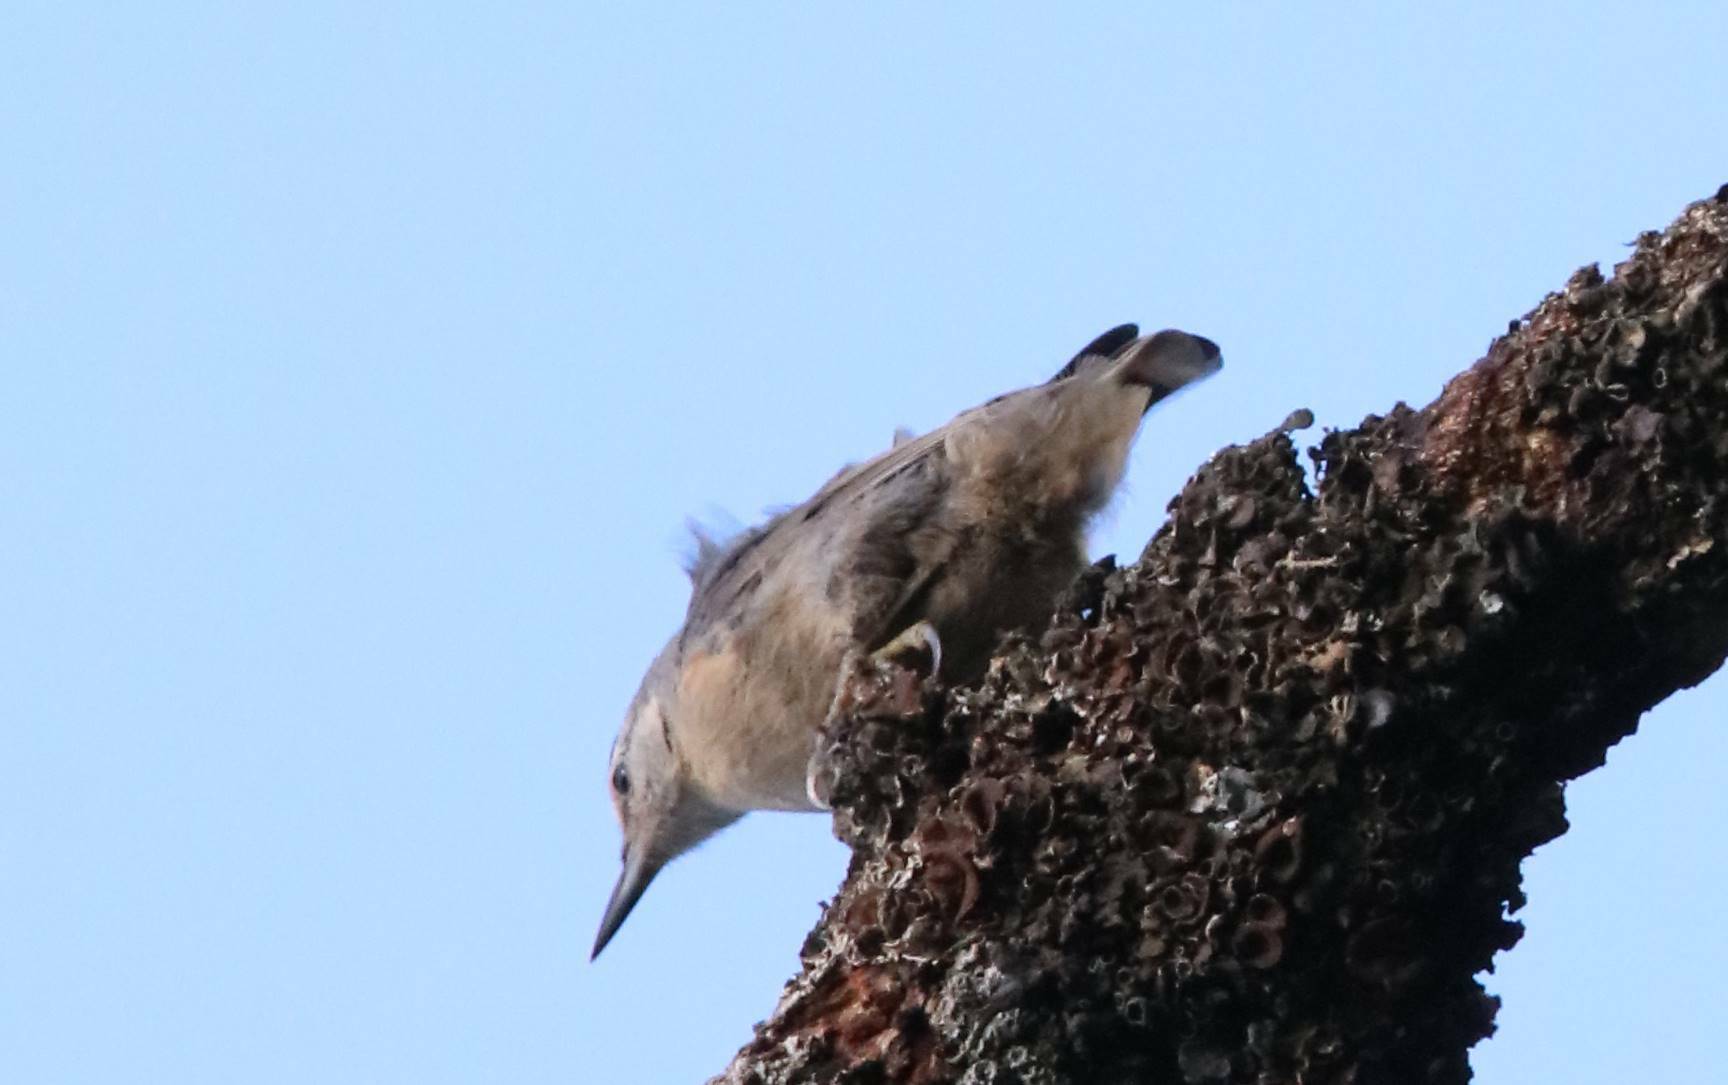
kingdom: Animalia
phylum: Chordata
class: Aves
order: Passeriformes
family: Sittidae
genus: Sitta
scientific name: Sitta ledanti
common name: Algerian nuthatch
